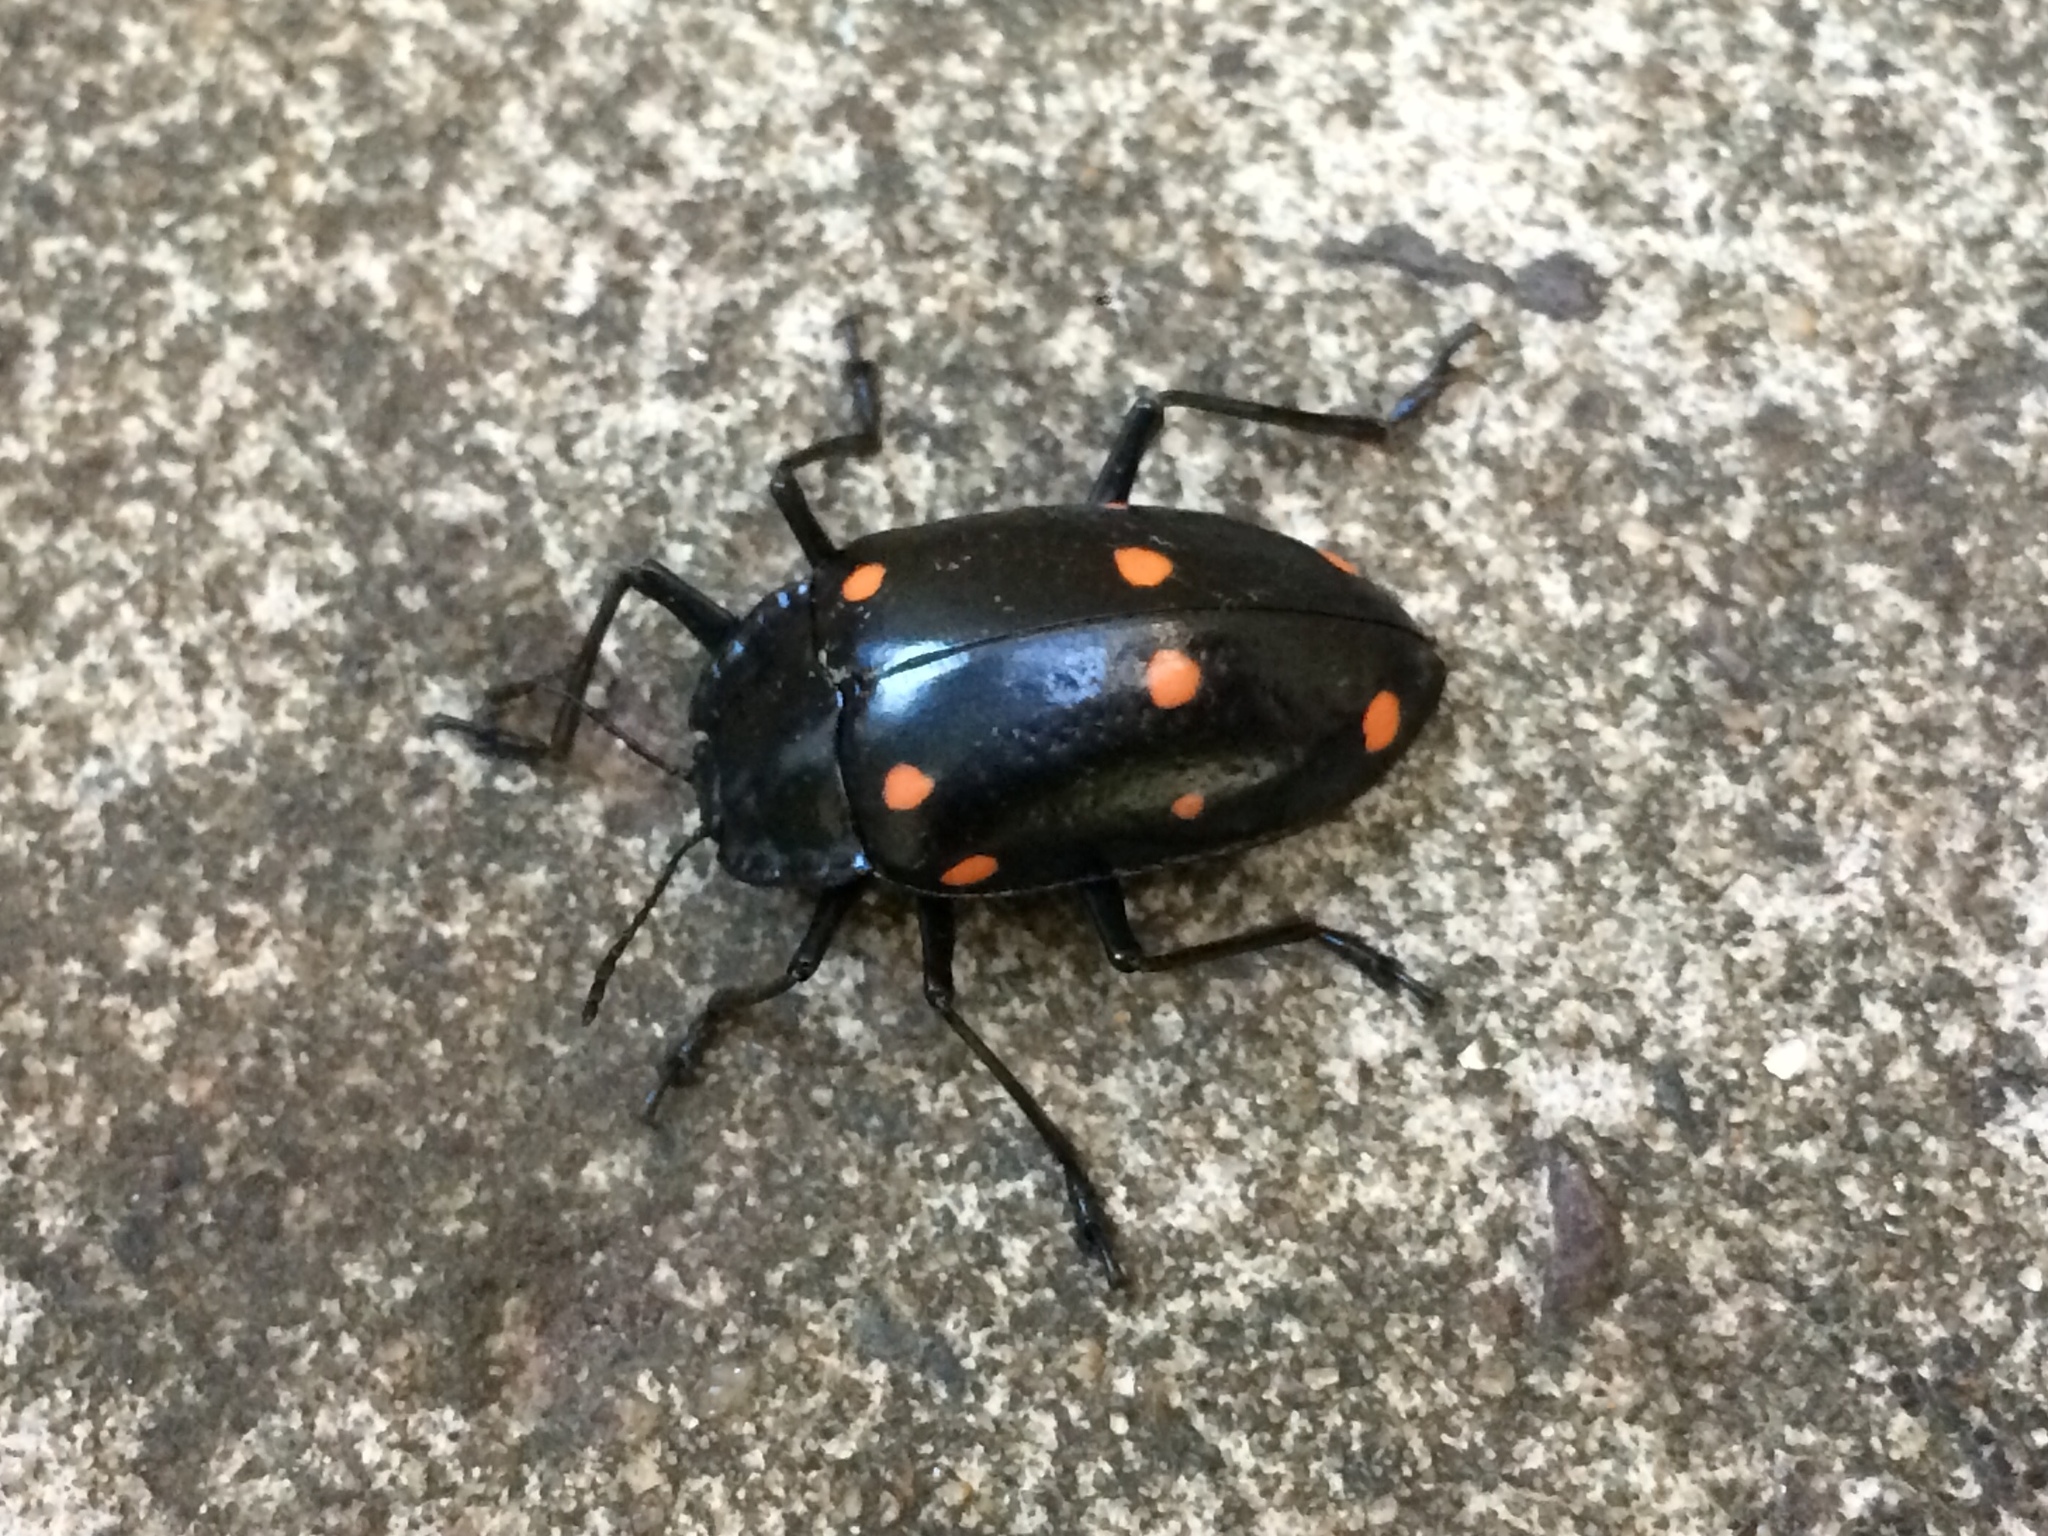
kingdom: Animalia
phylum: Arthropoda
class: Insecta
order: Coleoptera
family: Erotylidae
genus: Scaphidomorphus
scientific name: Scaphidomorphus quinquepunctatus
